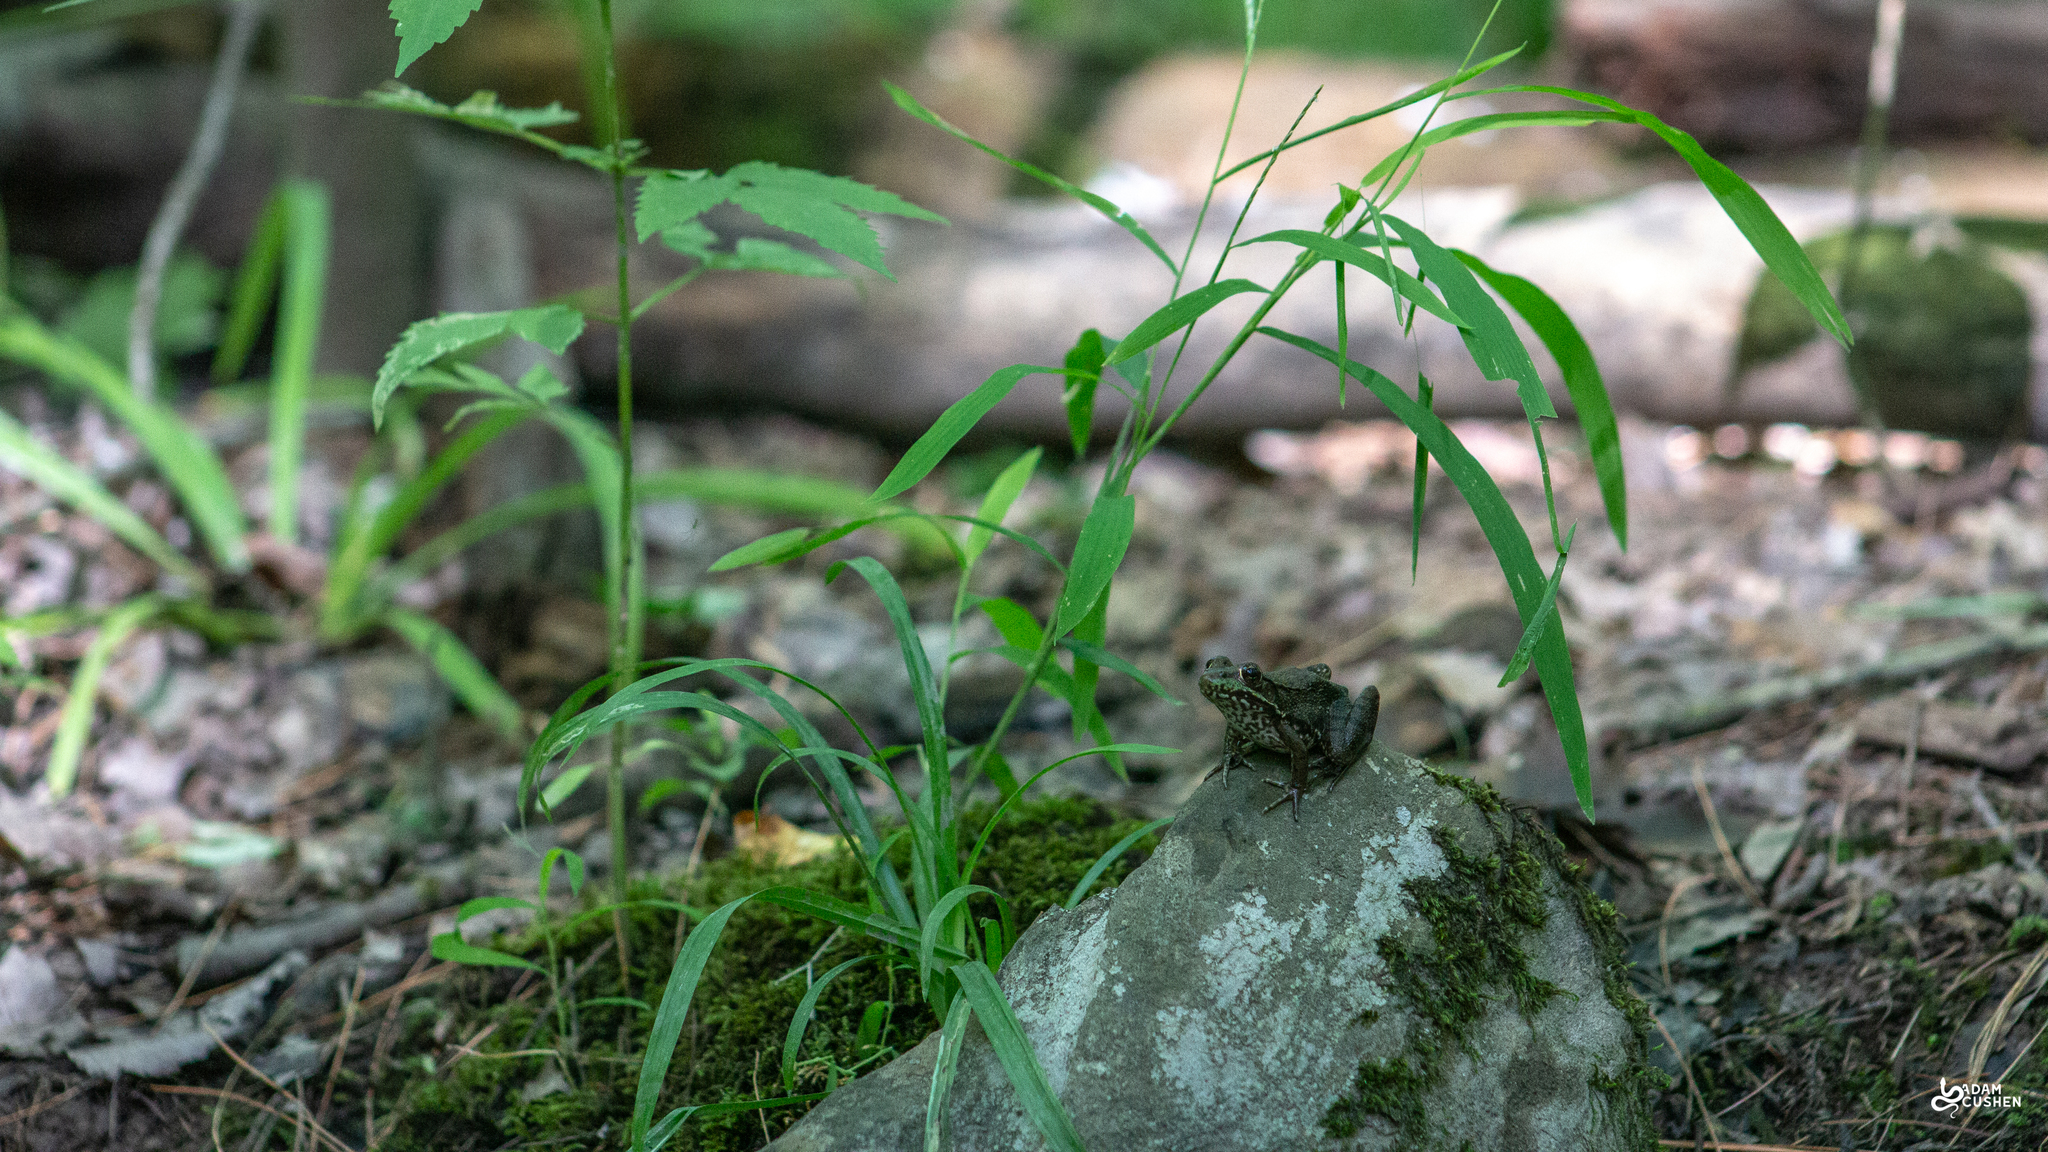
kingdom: Animalia
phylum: Chordata
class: Amphibia
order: Anura
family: Ranidae
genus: Lithobates
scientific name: Lithobates clamitans
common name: Green frog
